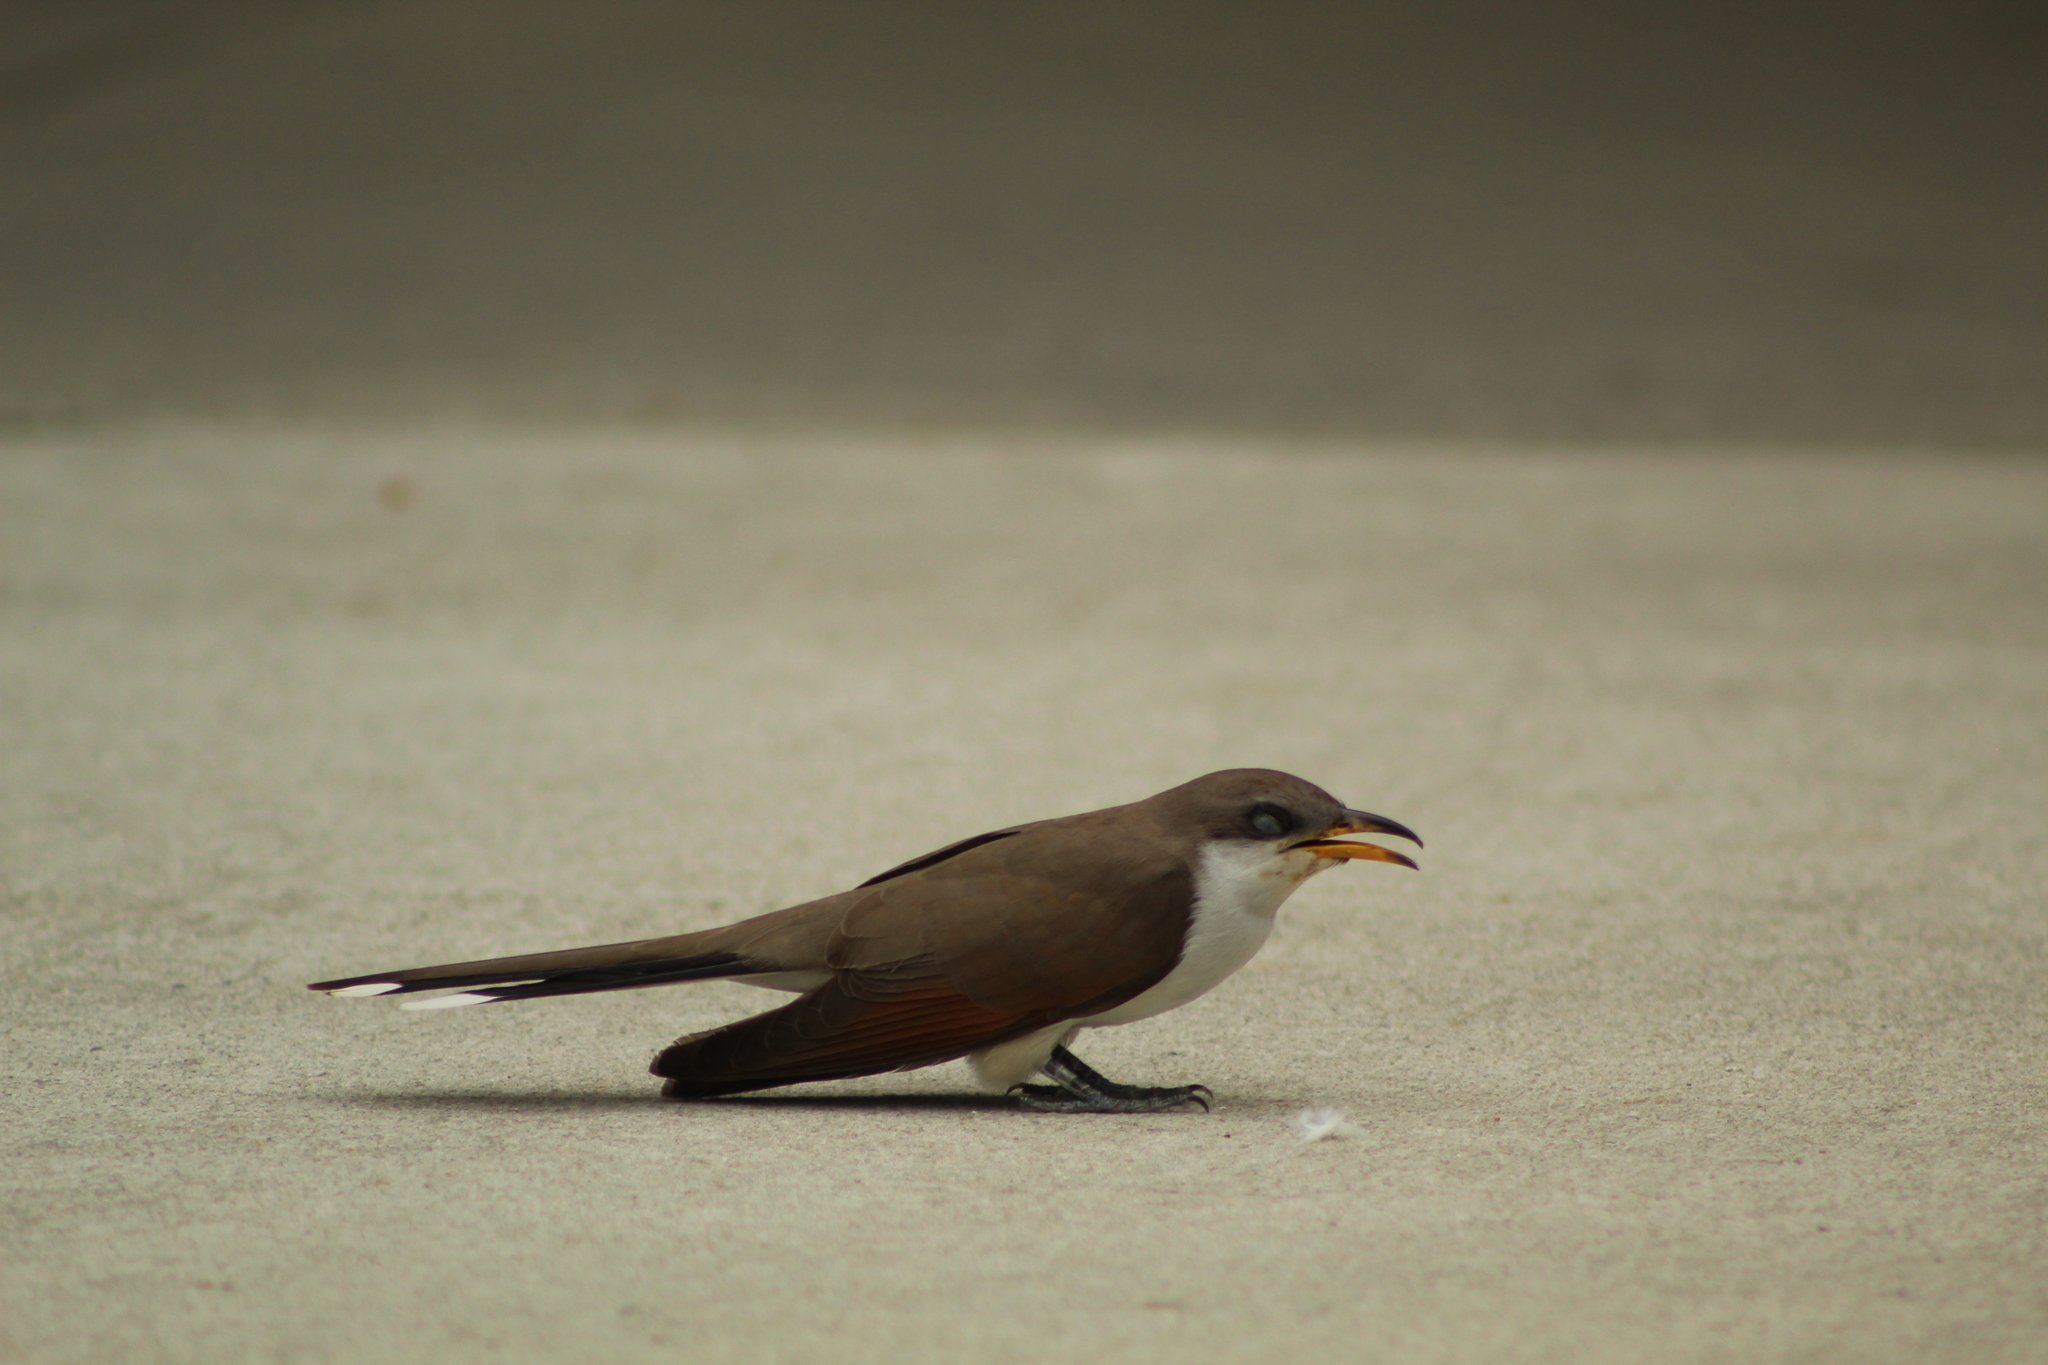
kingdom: Animalia
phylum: Chordata
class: Aves
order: Cuculiformes
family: Cuculidae
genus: Coccyzus
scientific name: Coccyzus americanus
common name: Yellow-billed cuckoo
